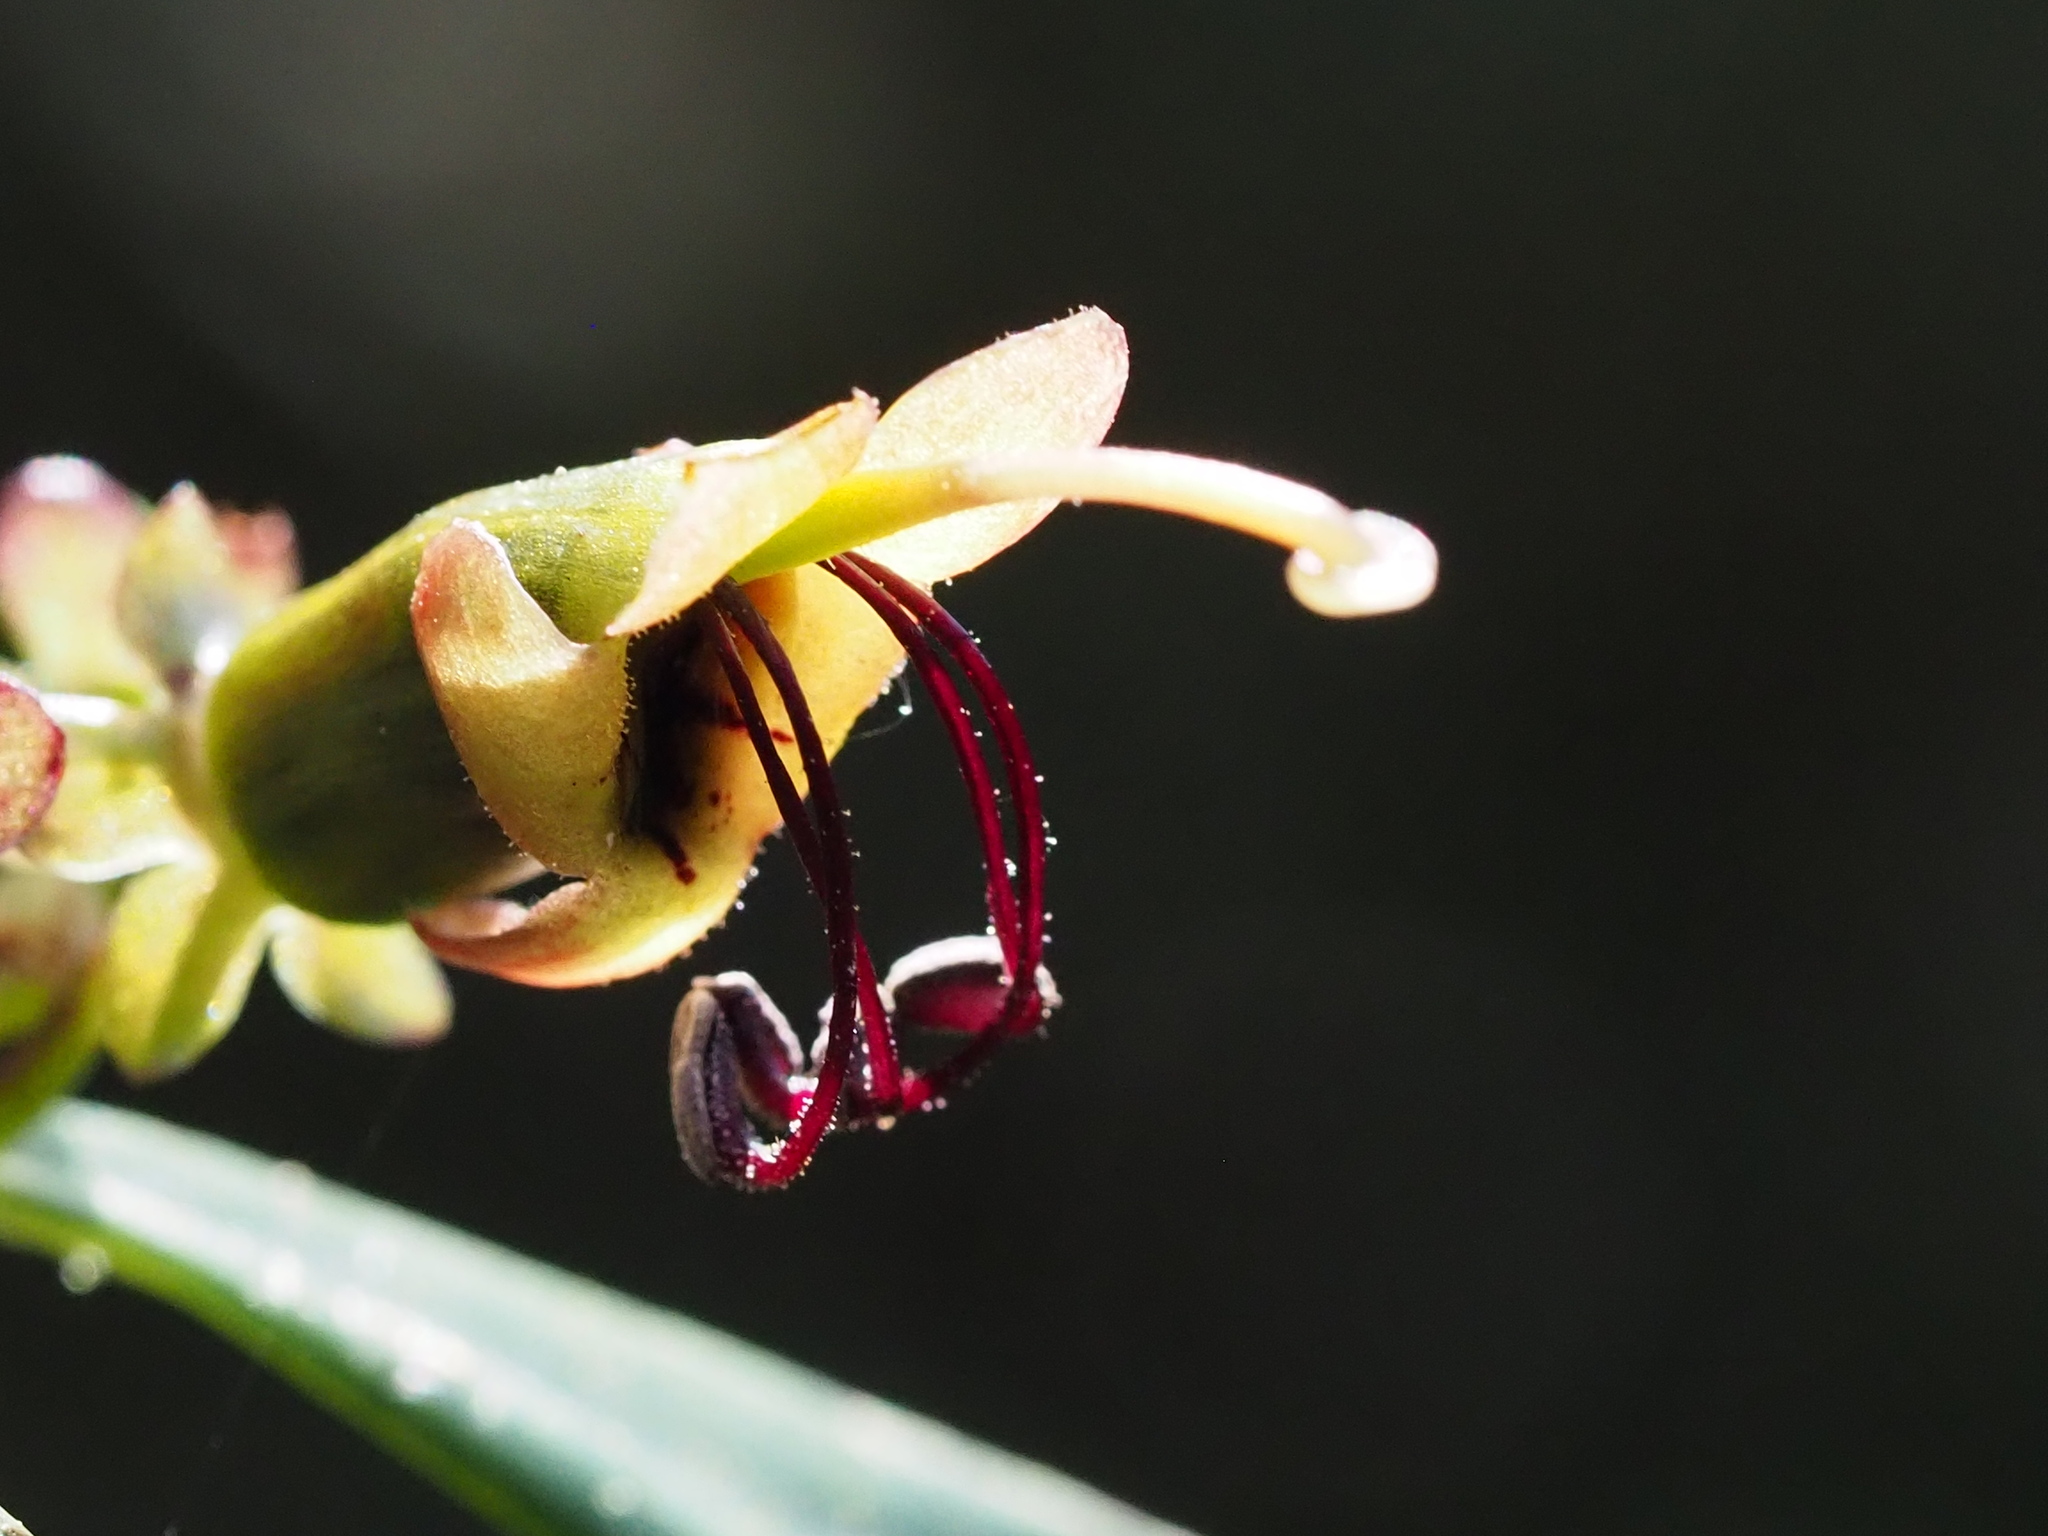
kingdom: Plantae
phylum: Tracheophyta
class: Magnoliopsida
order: Lamiales
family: Gesneriaceae
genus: Aeschynanthus
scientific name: Aeschynanthus acuminatus
